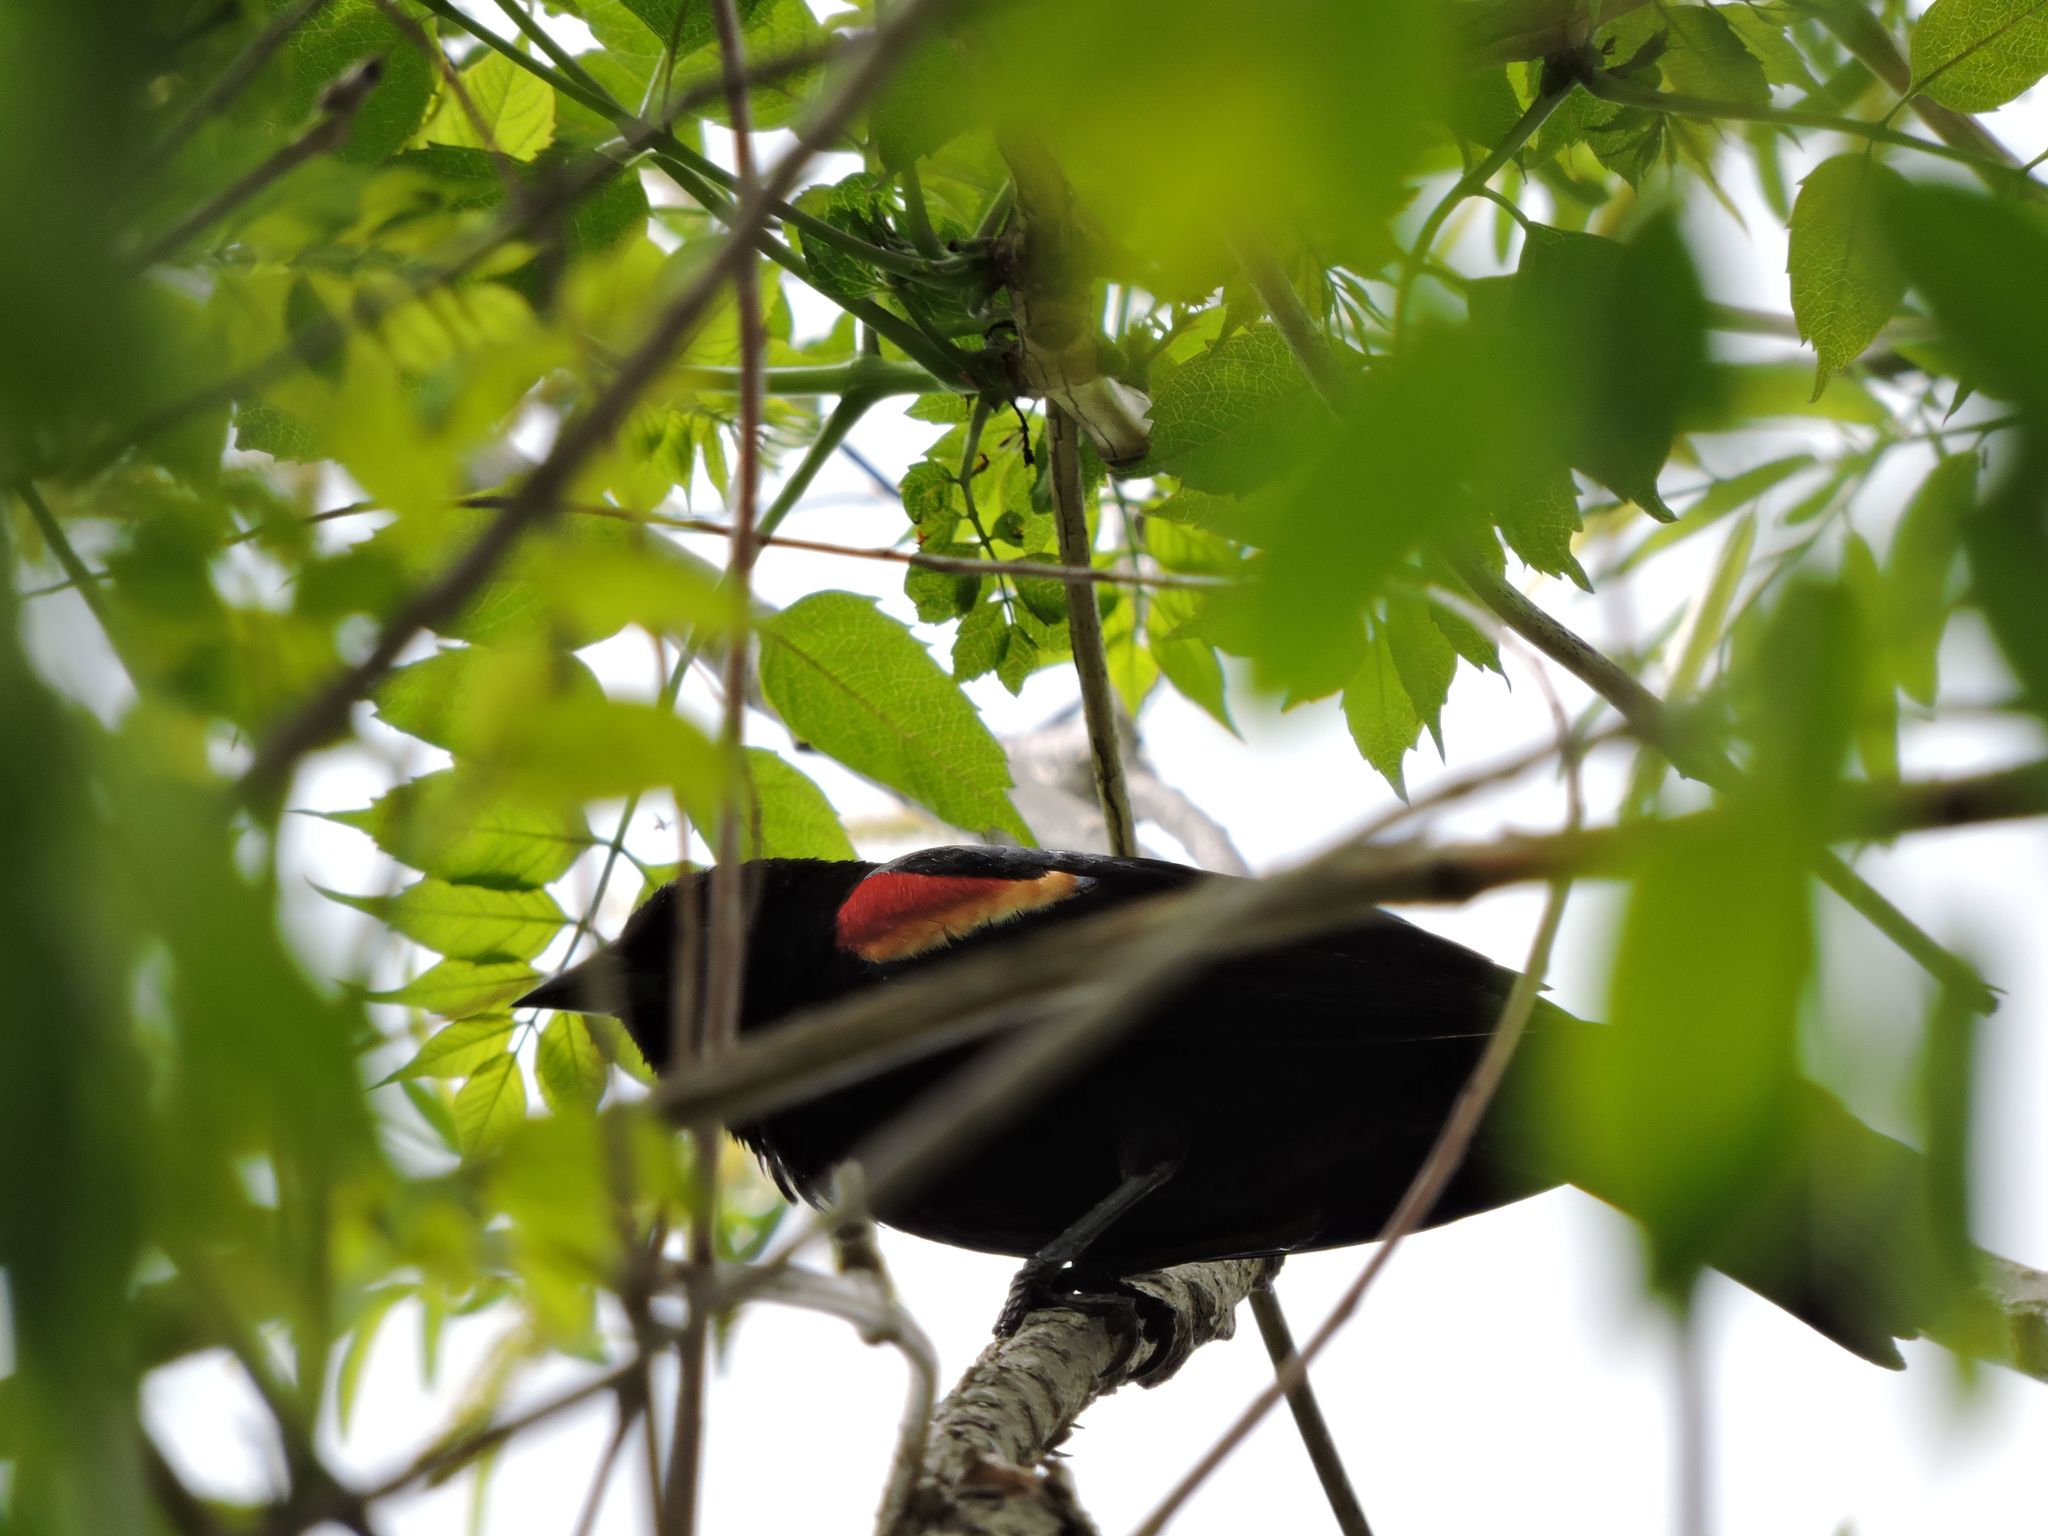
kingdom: Animalia
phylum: Chordata
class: Aves
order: Passeriformes
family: Icteridae
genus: Agelaius
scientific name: Agelaius phoeniceus
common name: Red-winged blackbird
